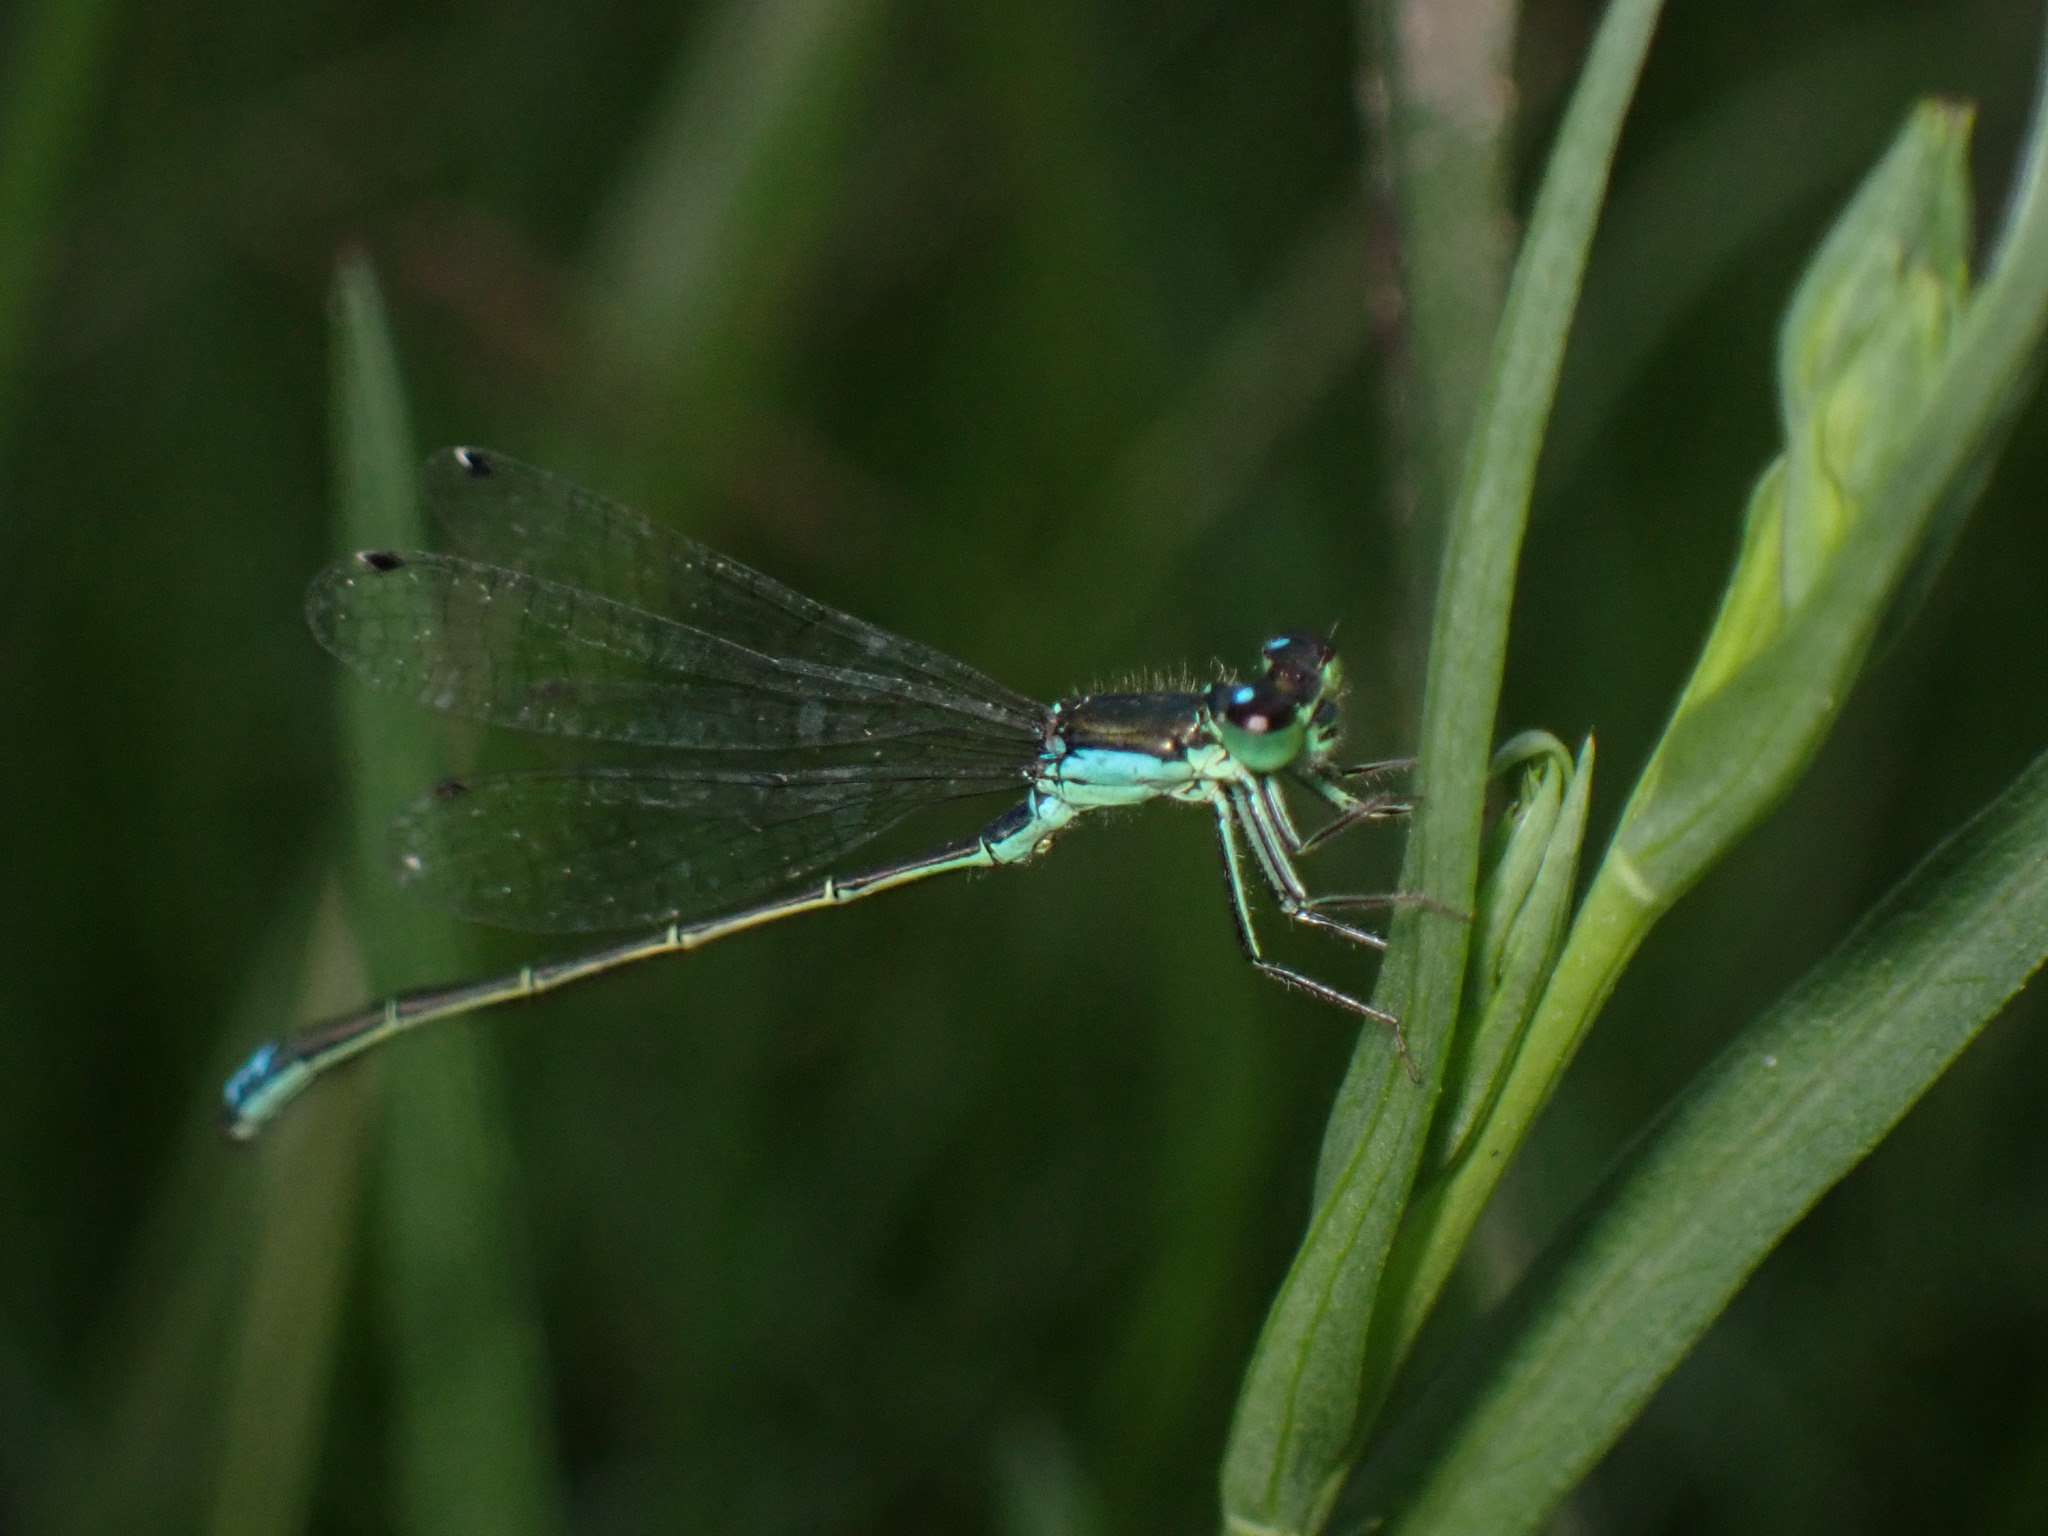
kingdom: Animalia
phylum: Arthropoda
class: Insecta
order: Odonata
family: Coenagrionidae
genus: Ischnura
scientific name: Ischnura denticollis
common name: Black-fronted forktail
